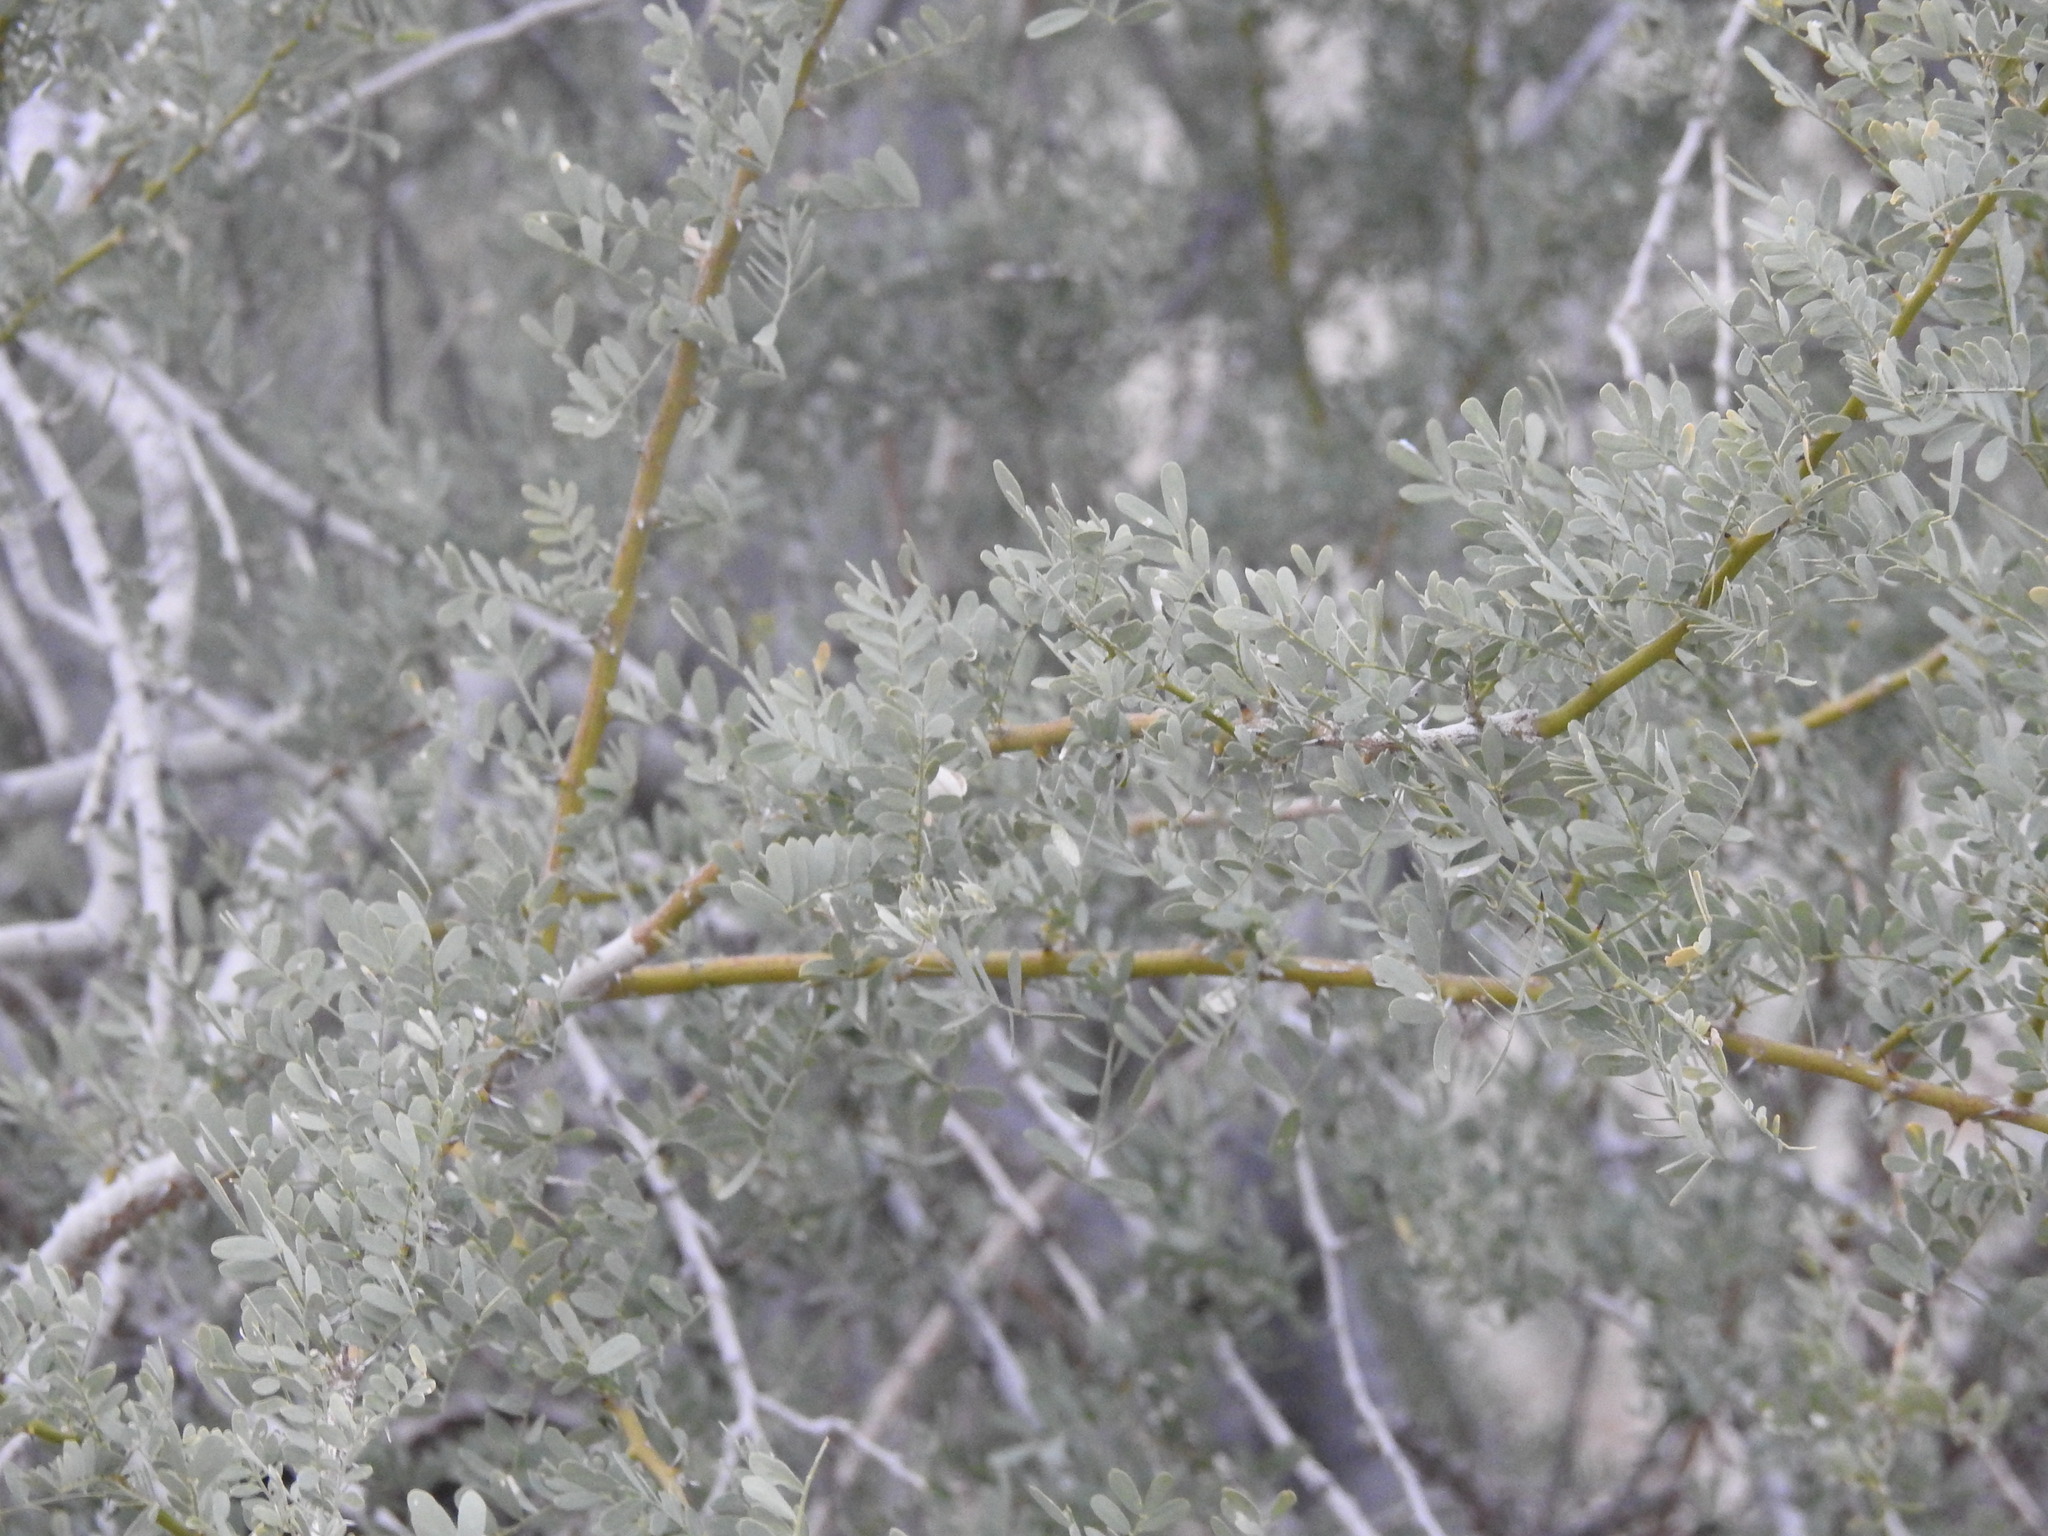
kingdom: Plantae
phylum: Tracheophyta
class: Magnoliopsida
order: Fabales
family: Fabaceae
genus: Olneya
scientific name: Olneya tesota
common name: Desert ironwood
